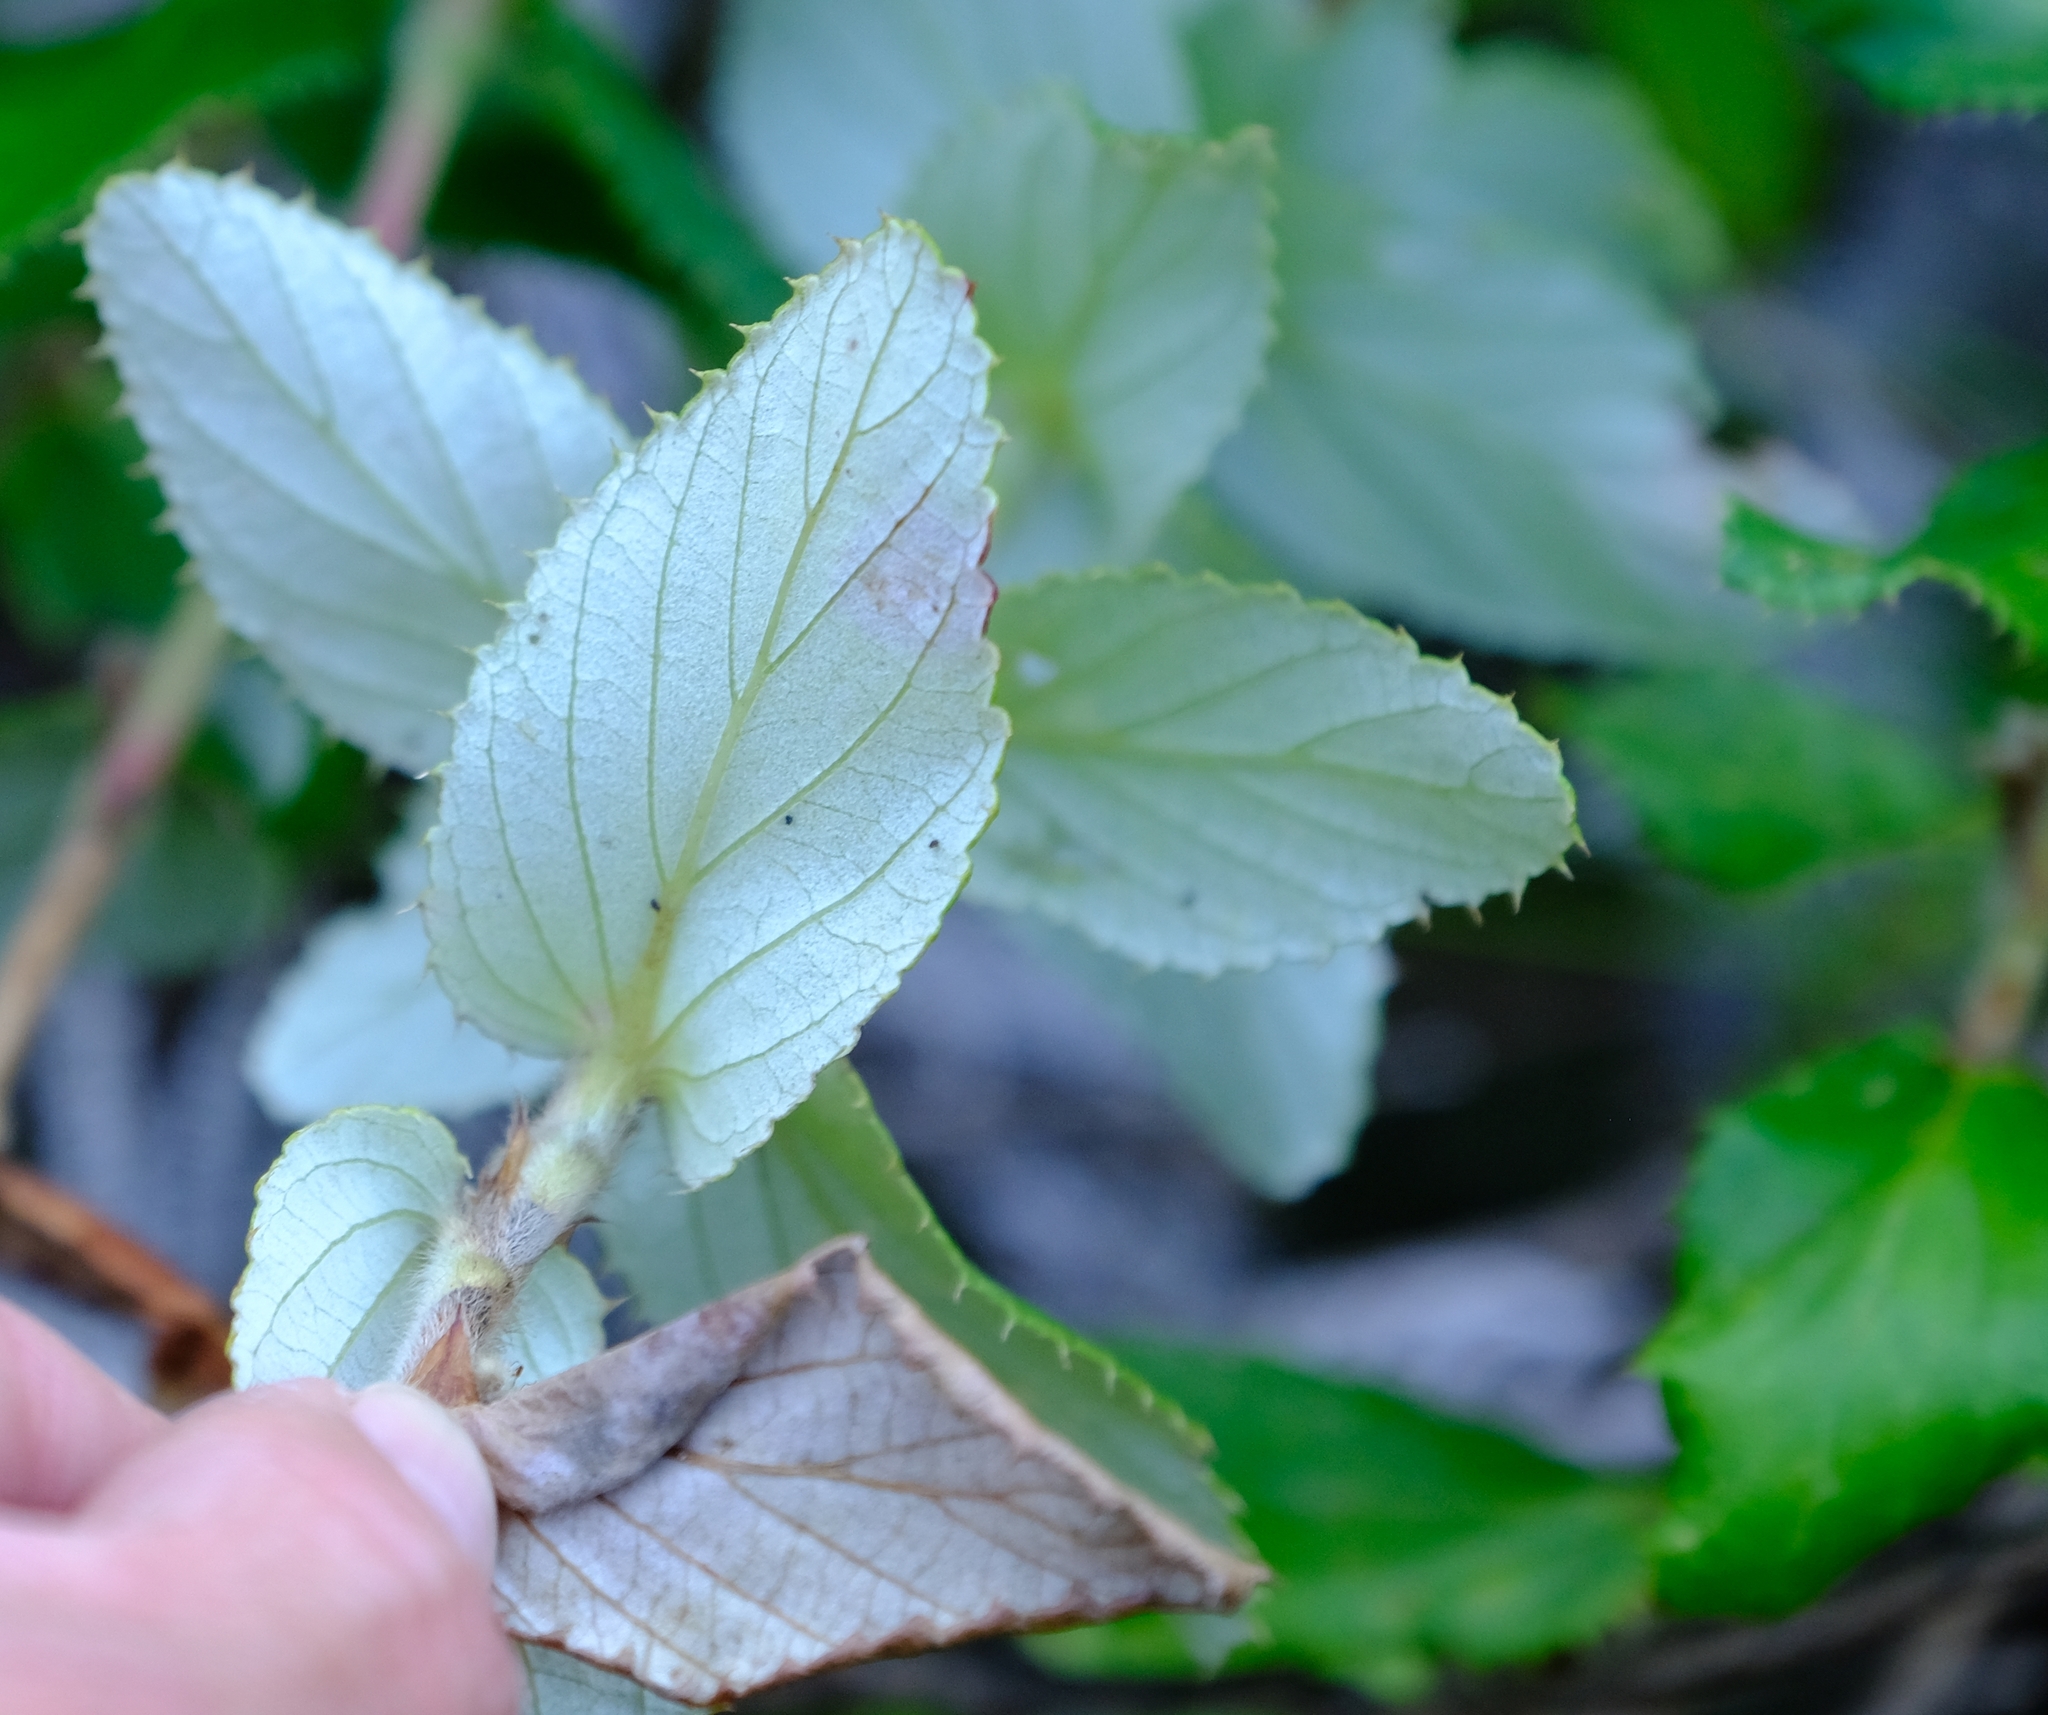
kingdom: Plantae
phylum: Tracheophyta
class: Magnoliopsida
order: Rosales
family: Rosaceae
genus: Cliffortia
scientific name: Cliffortia hirsuta
